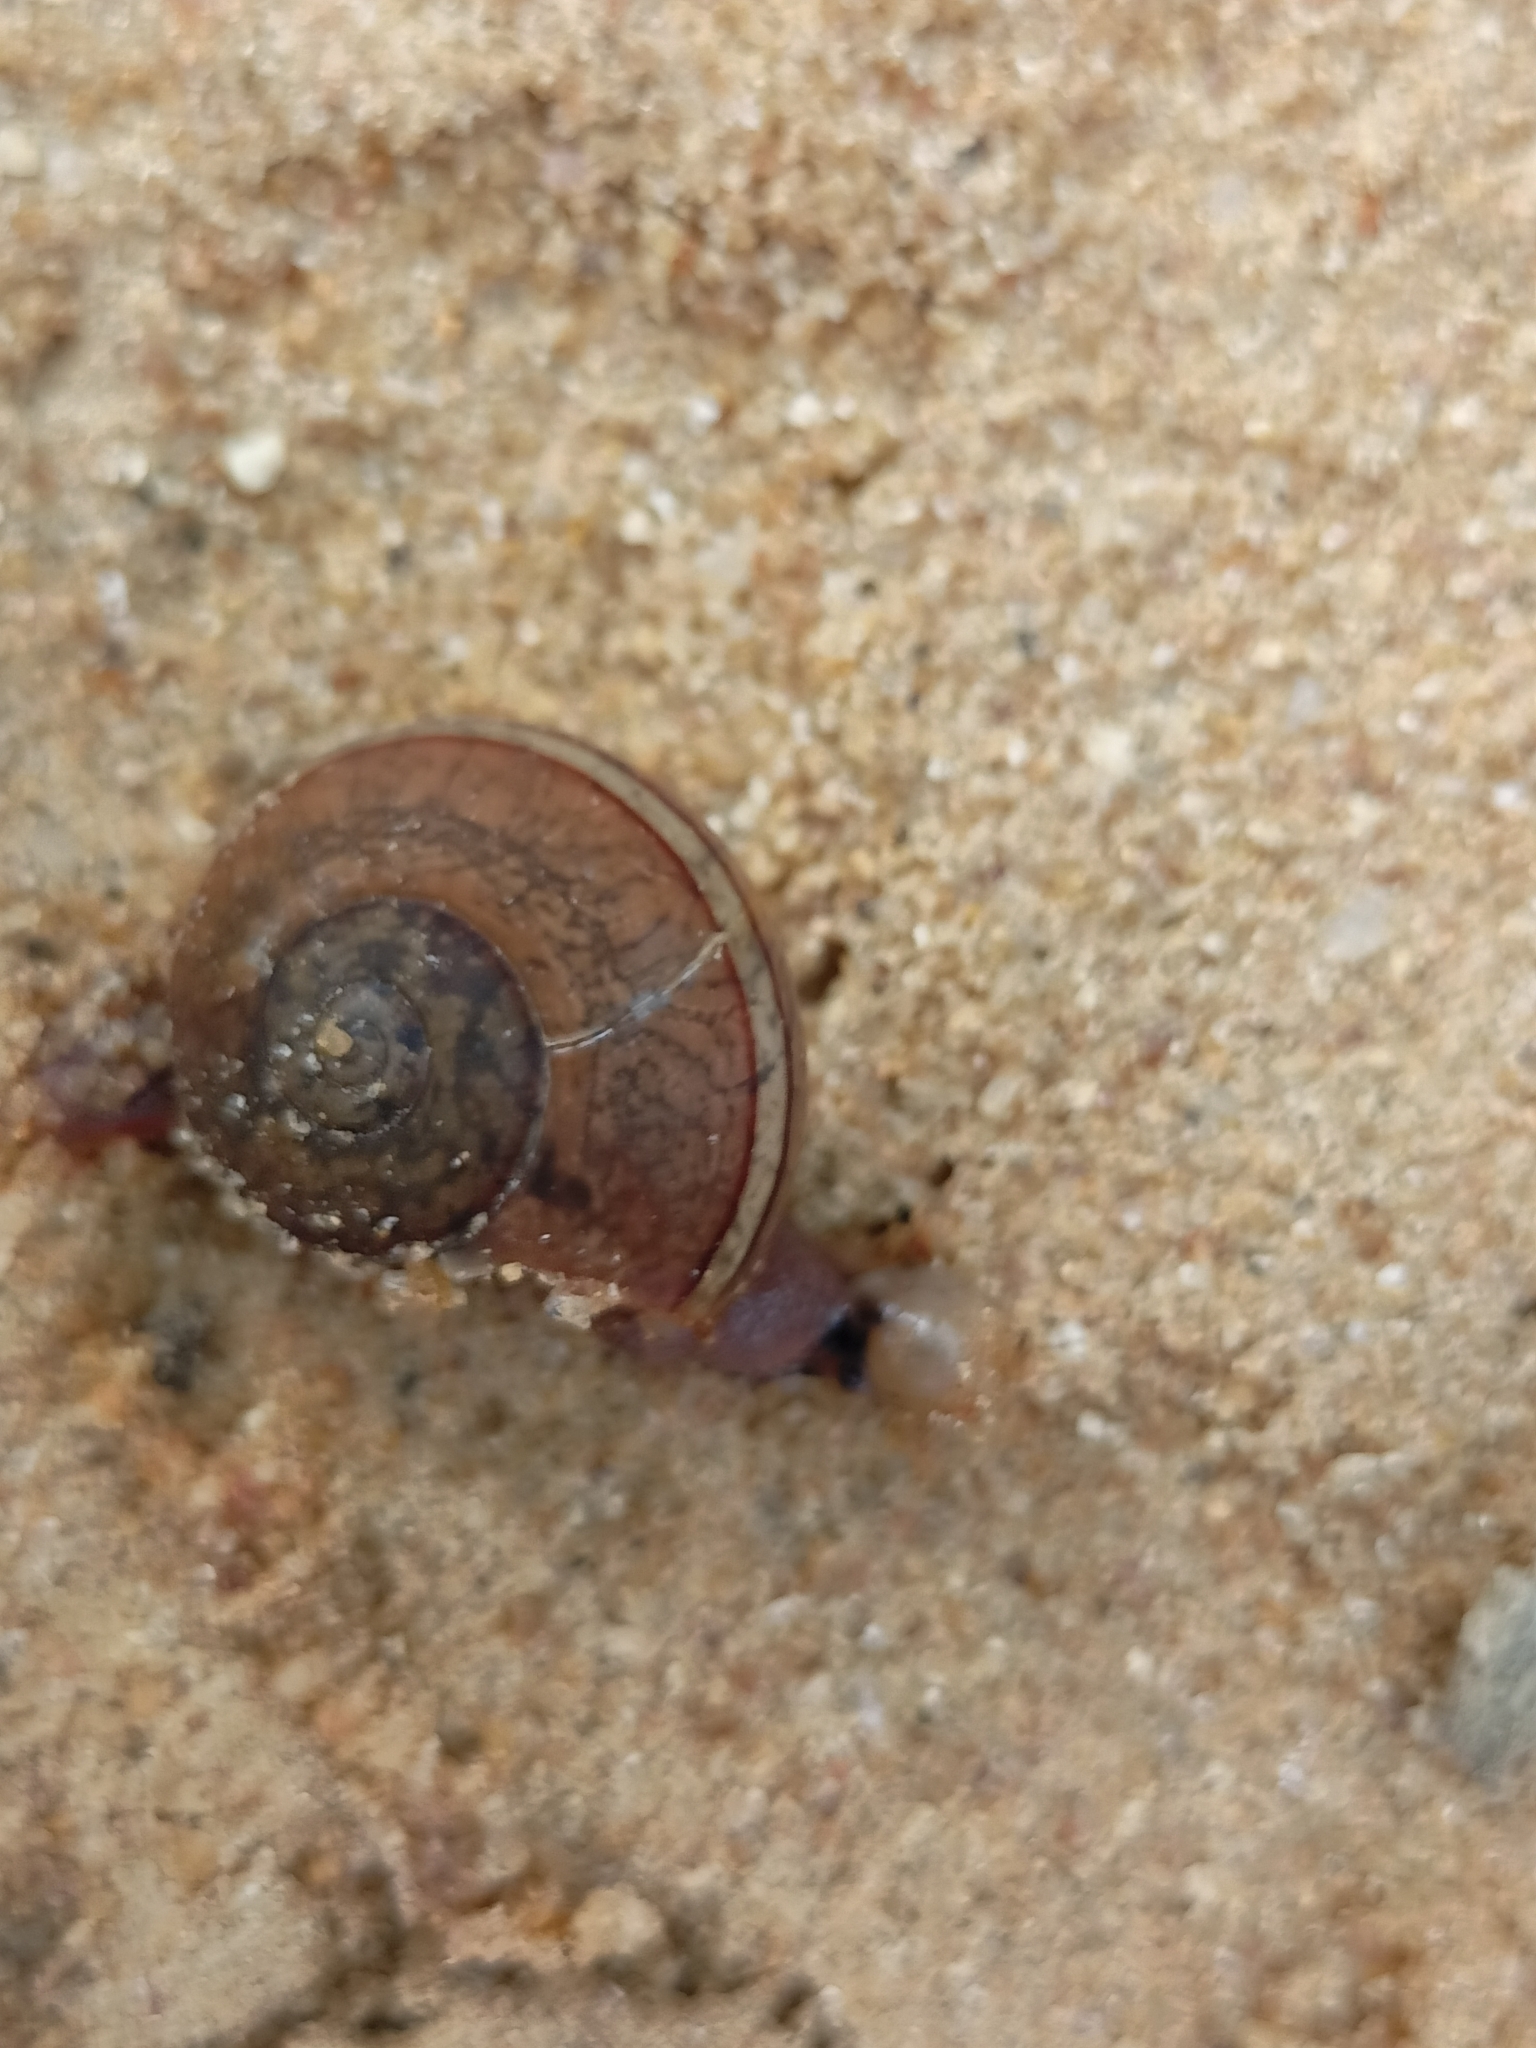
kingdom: Animalia
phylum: Mollusca
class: Gastropoda
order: Stylommatophora
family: Ariophantidae
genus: Ariophanta
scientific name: Ariophanta exilis
